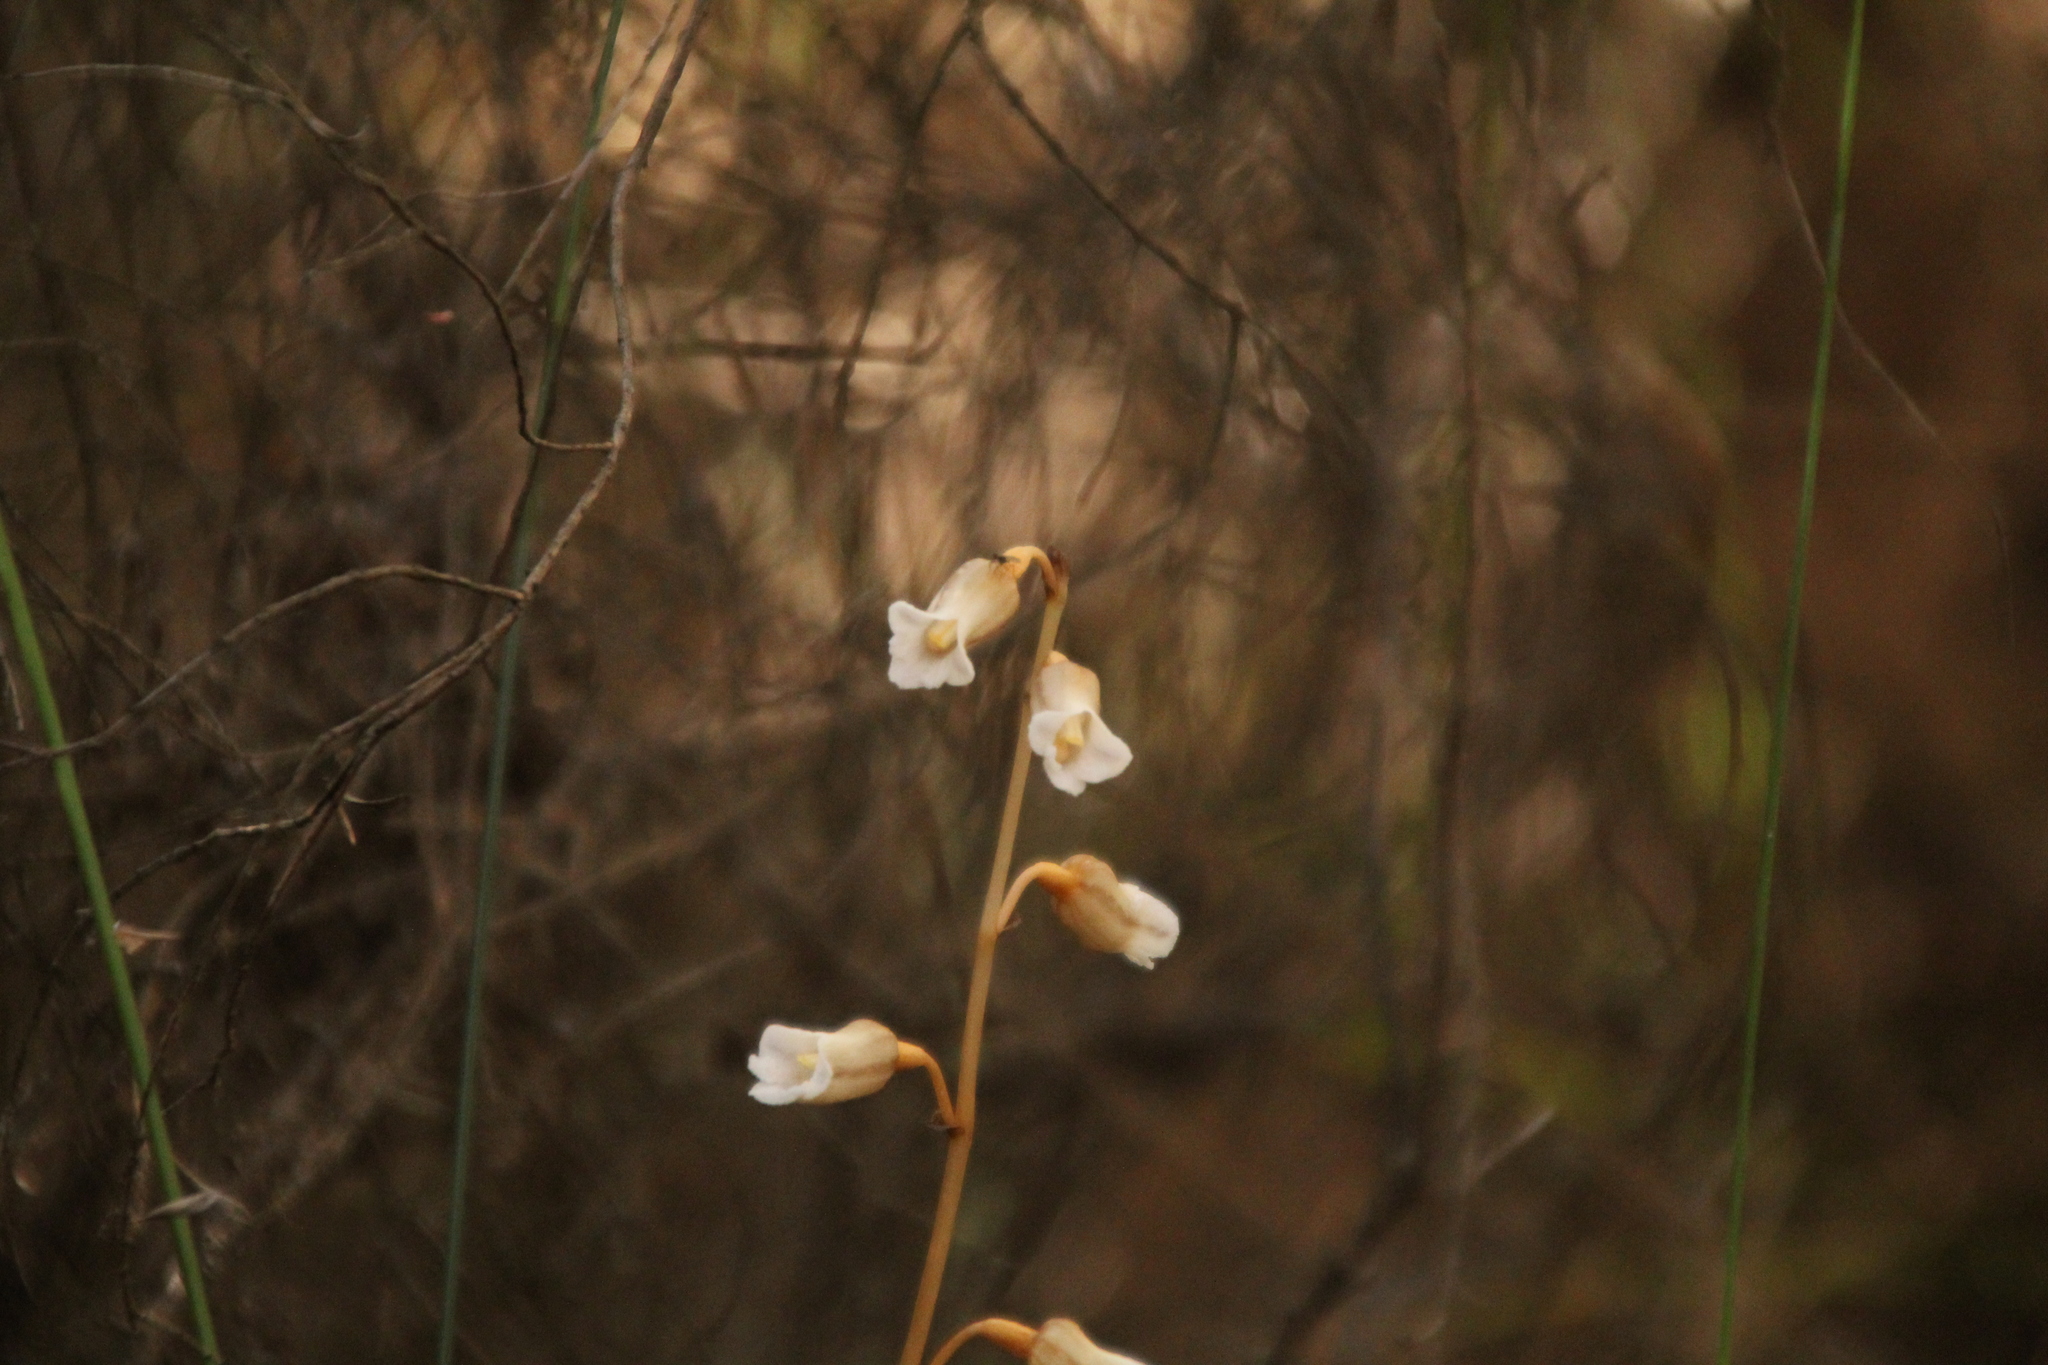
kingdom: Plantae
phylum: Tracheophyta
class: Liliopsida
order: Asparagales
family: Orchidaceae
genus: Gastrodia
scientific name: Gastrodia lacista
